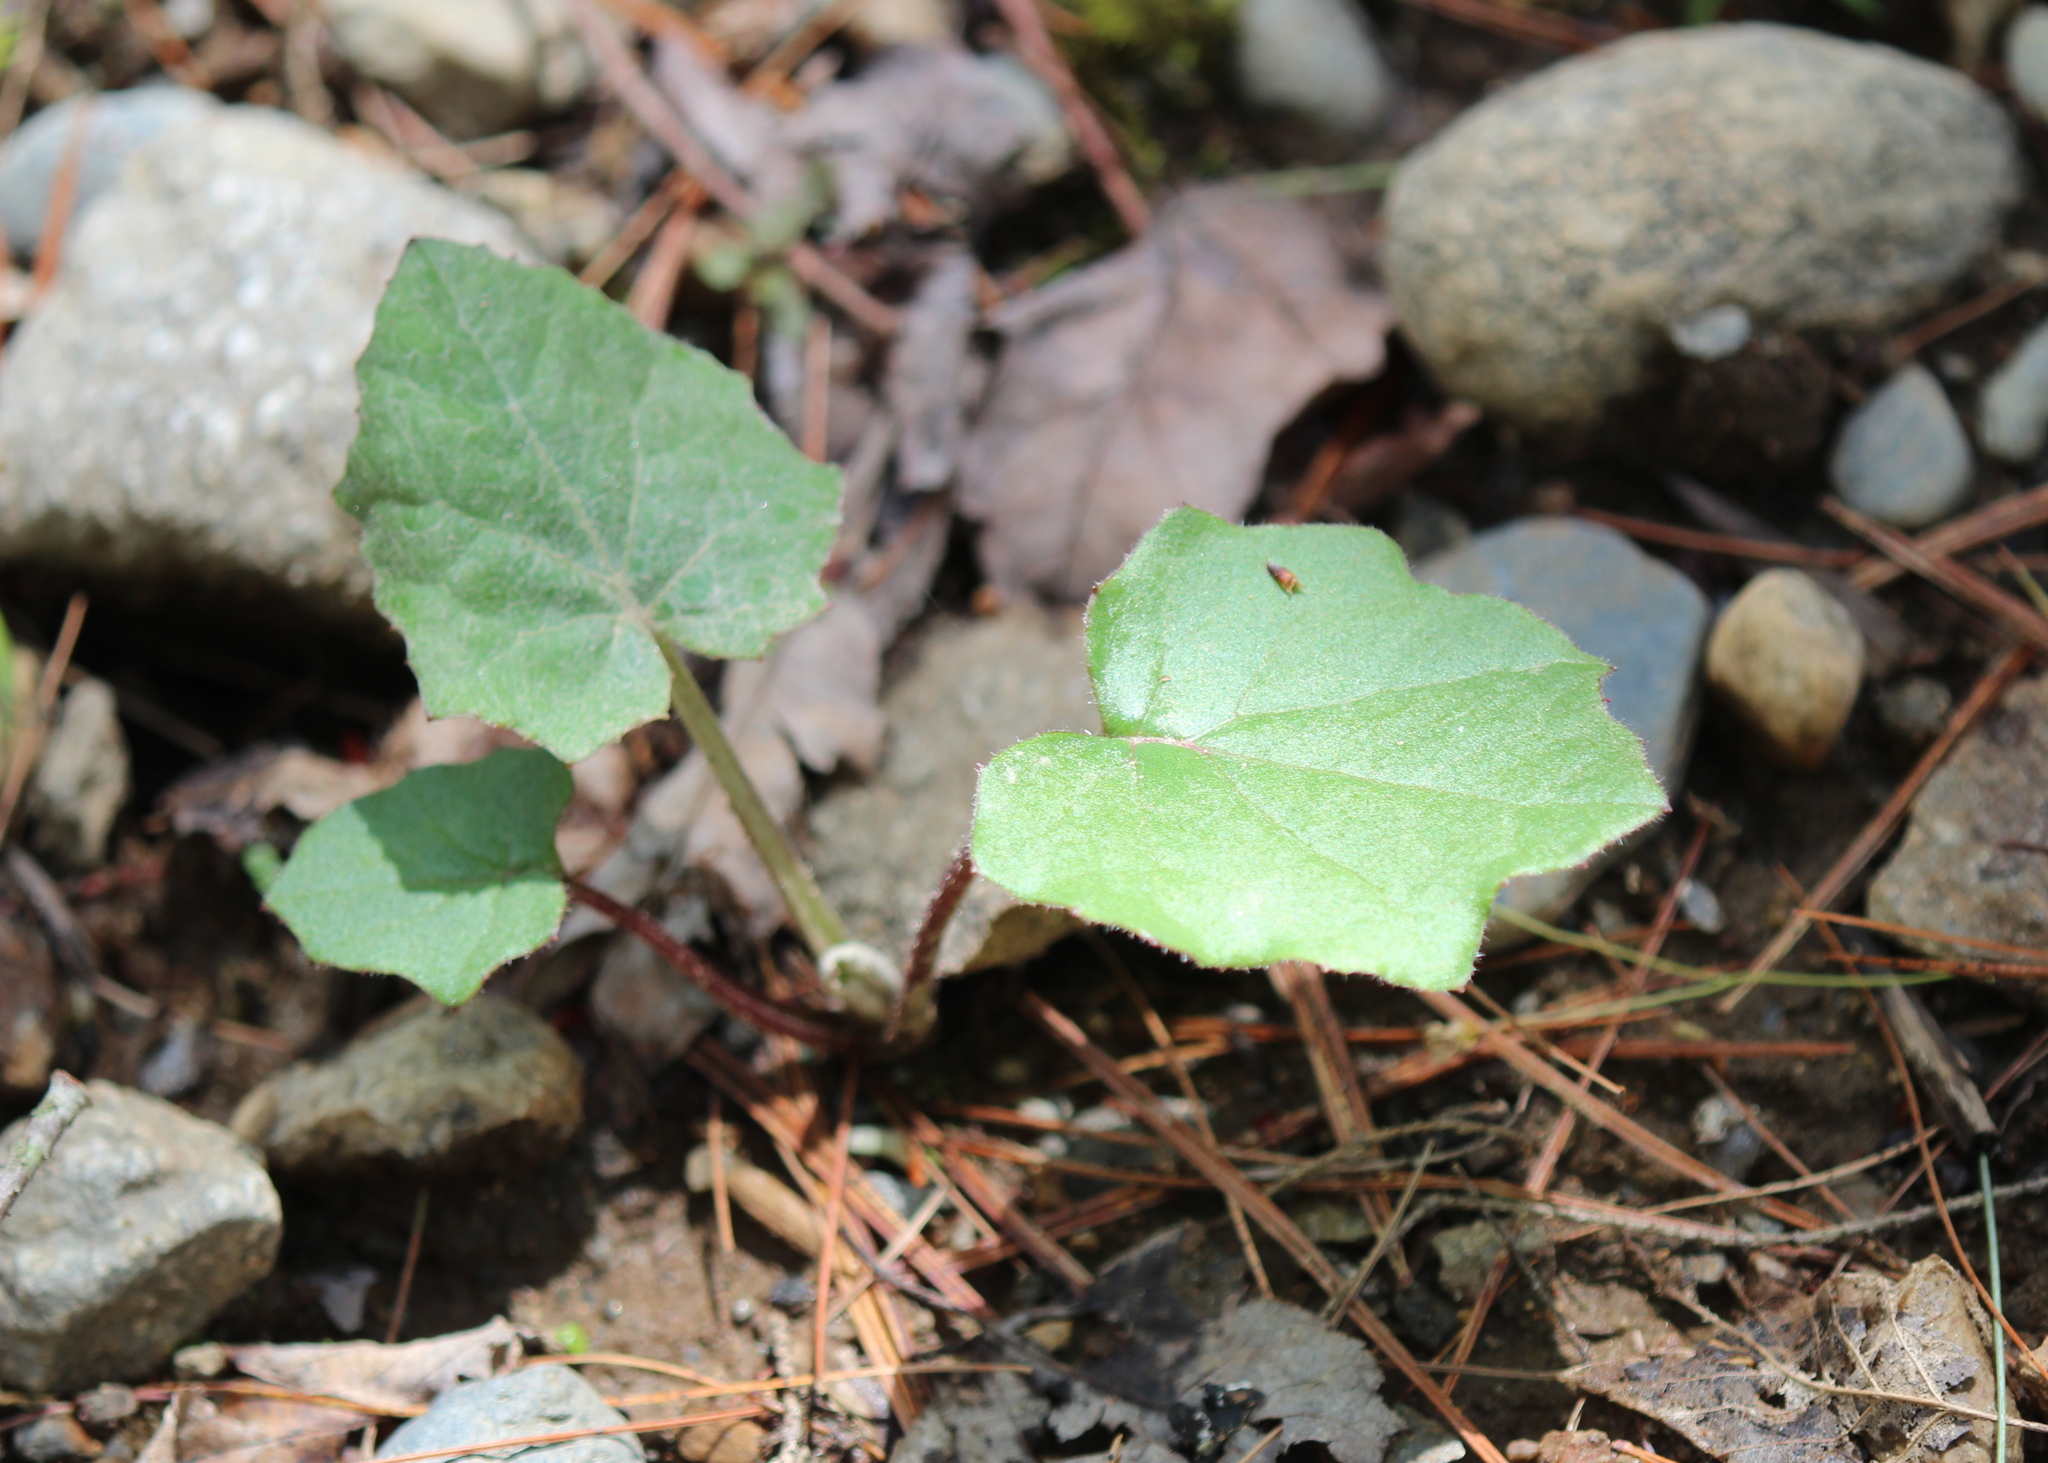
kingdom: Plantae
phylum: Tracheophyta
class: Magnoliopsida
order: Asterales
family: Asteraceae
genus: Tussilago
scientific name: Tussilago farfara
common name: Coltsfoot
